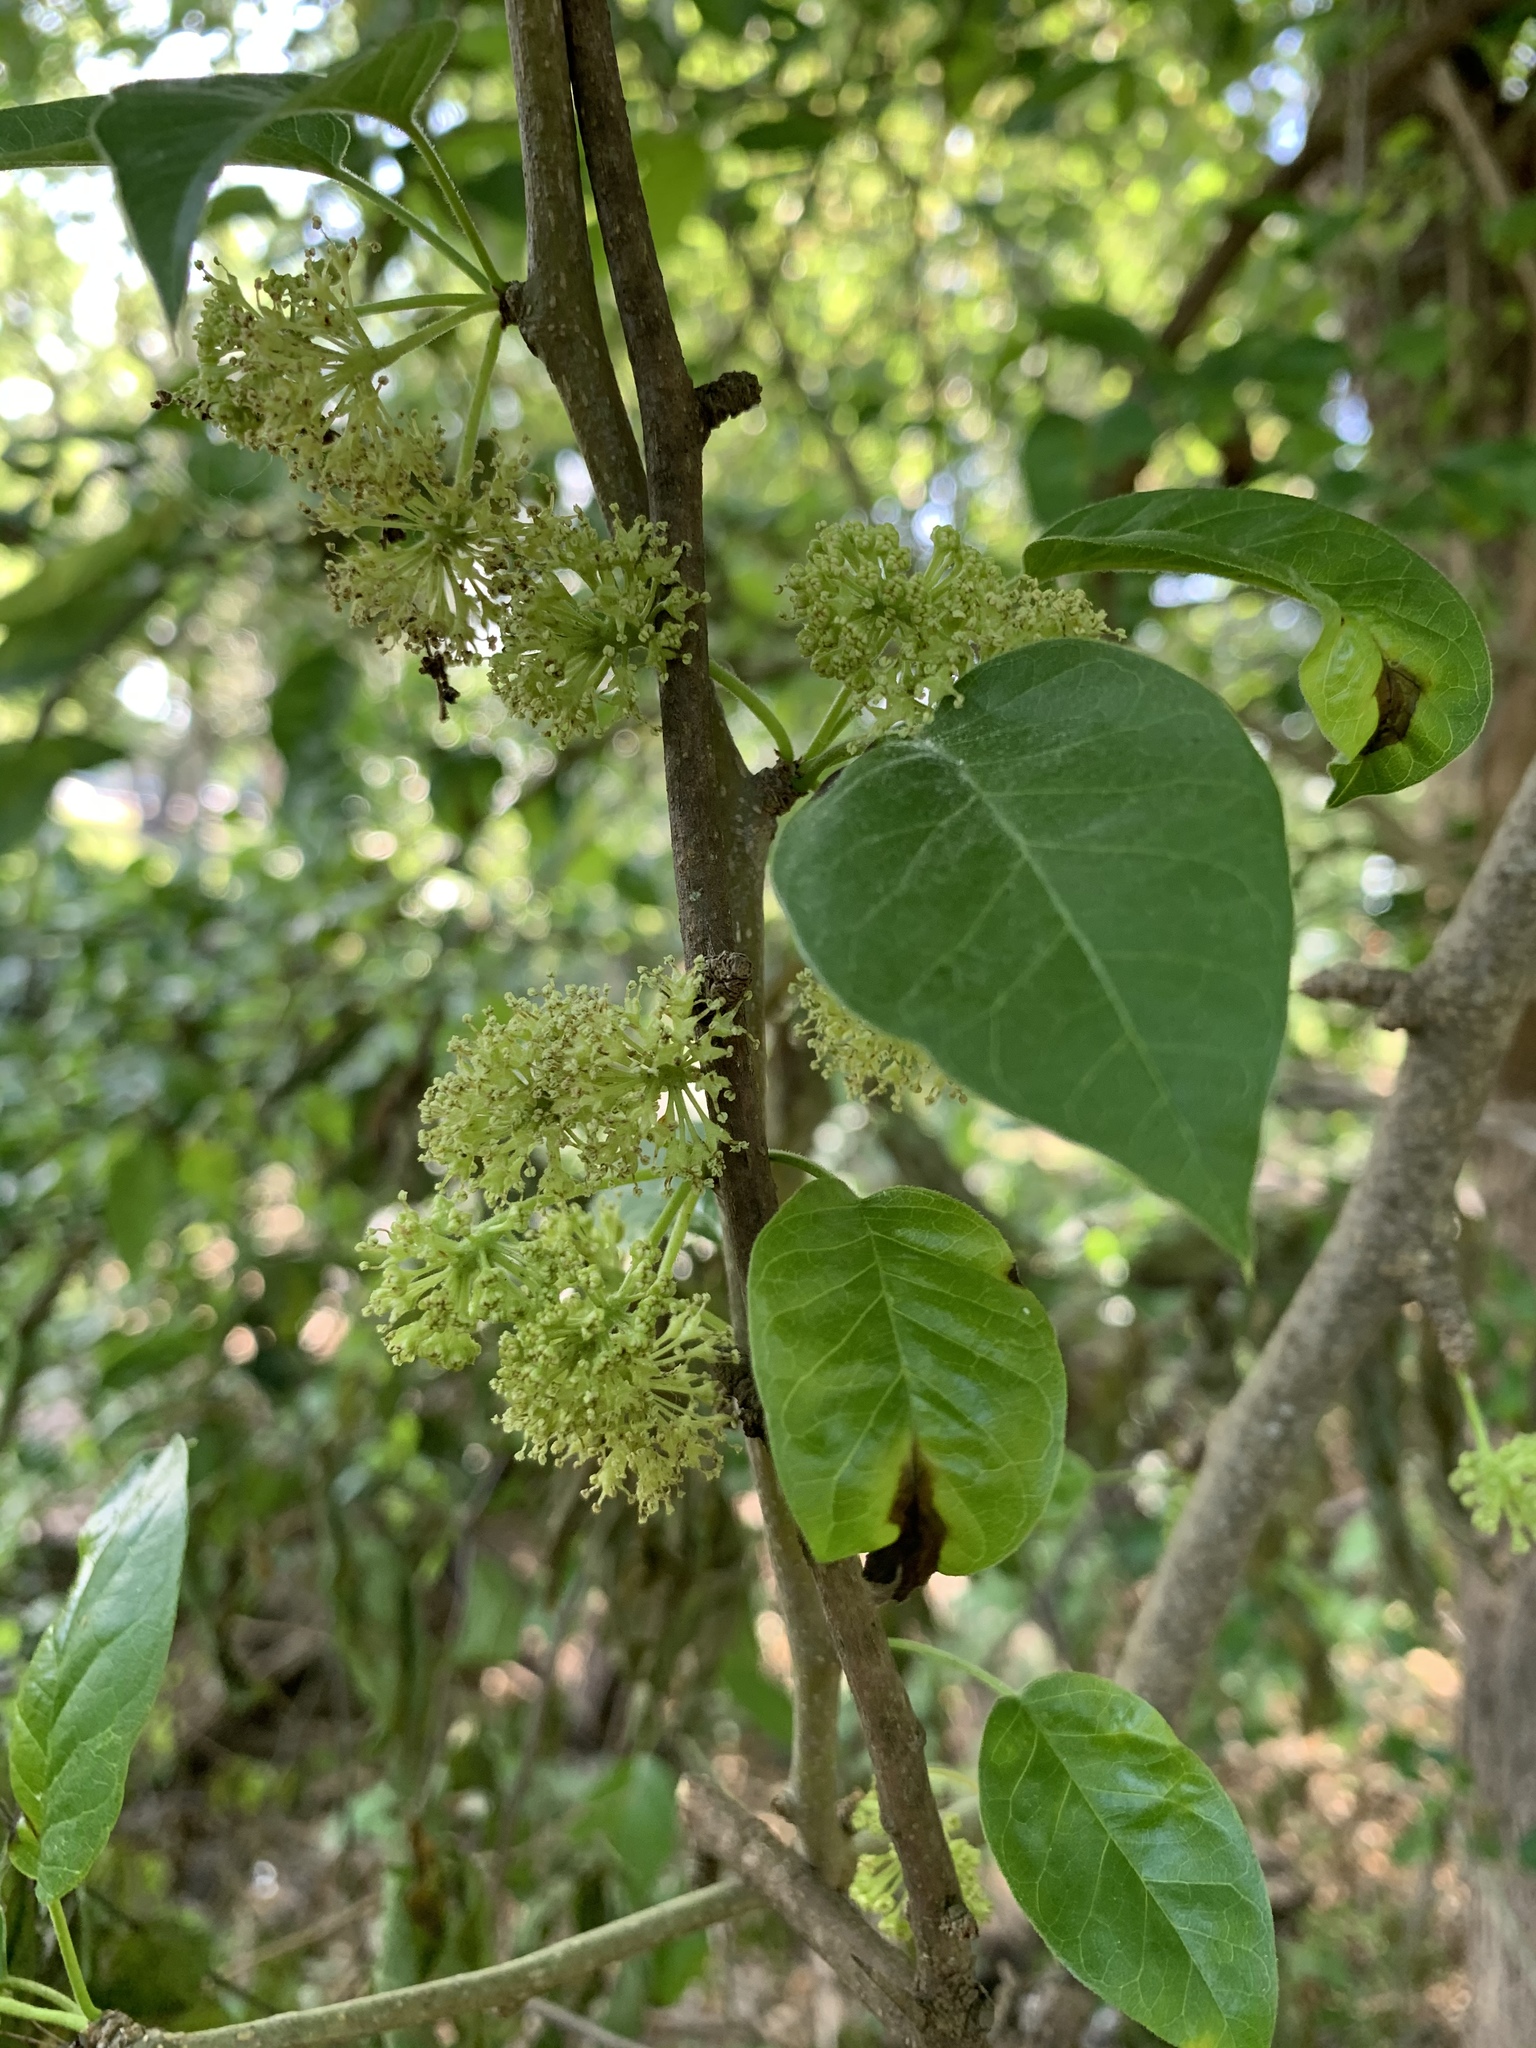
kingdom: Plantae
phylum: Tracheophyta
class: Magnoliopsida
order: Rosales
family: Moraceae
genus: Maclura
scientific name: Maclura pomifera
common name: Osage-orange
